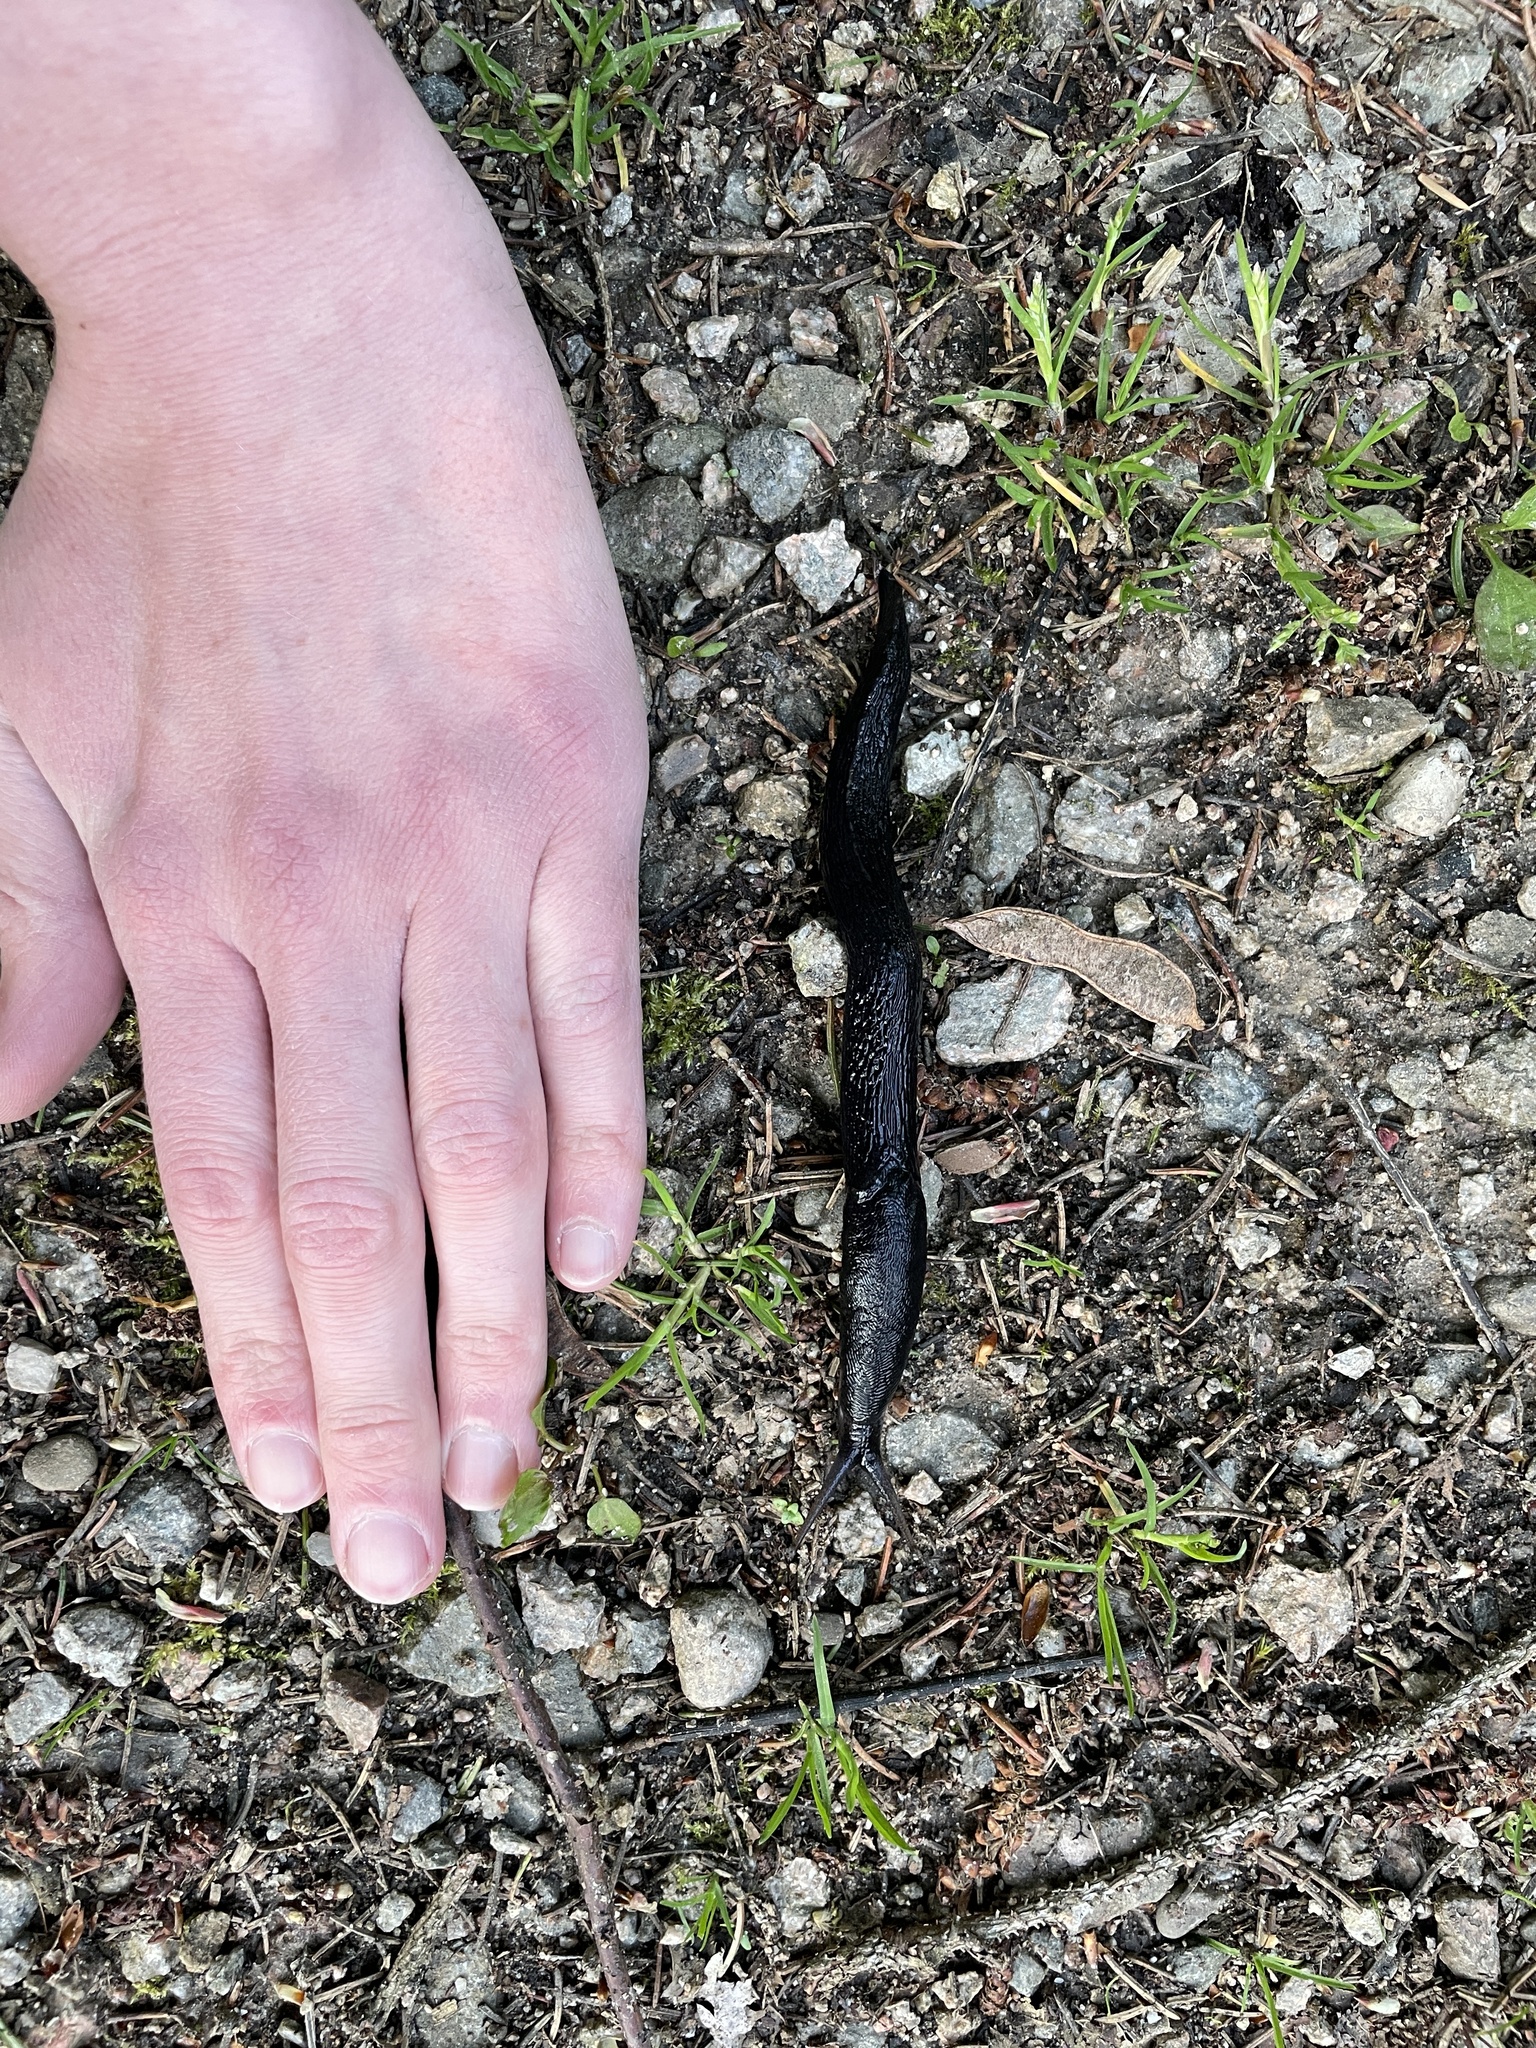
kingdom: Animalia
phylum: Mollusca
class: Gastropoda
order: Stylommatophora
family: Limacidae
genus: Limax
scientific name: Limax cinereoniger
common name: Ash-black slug
